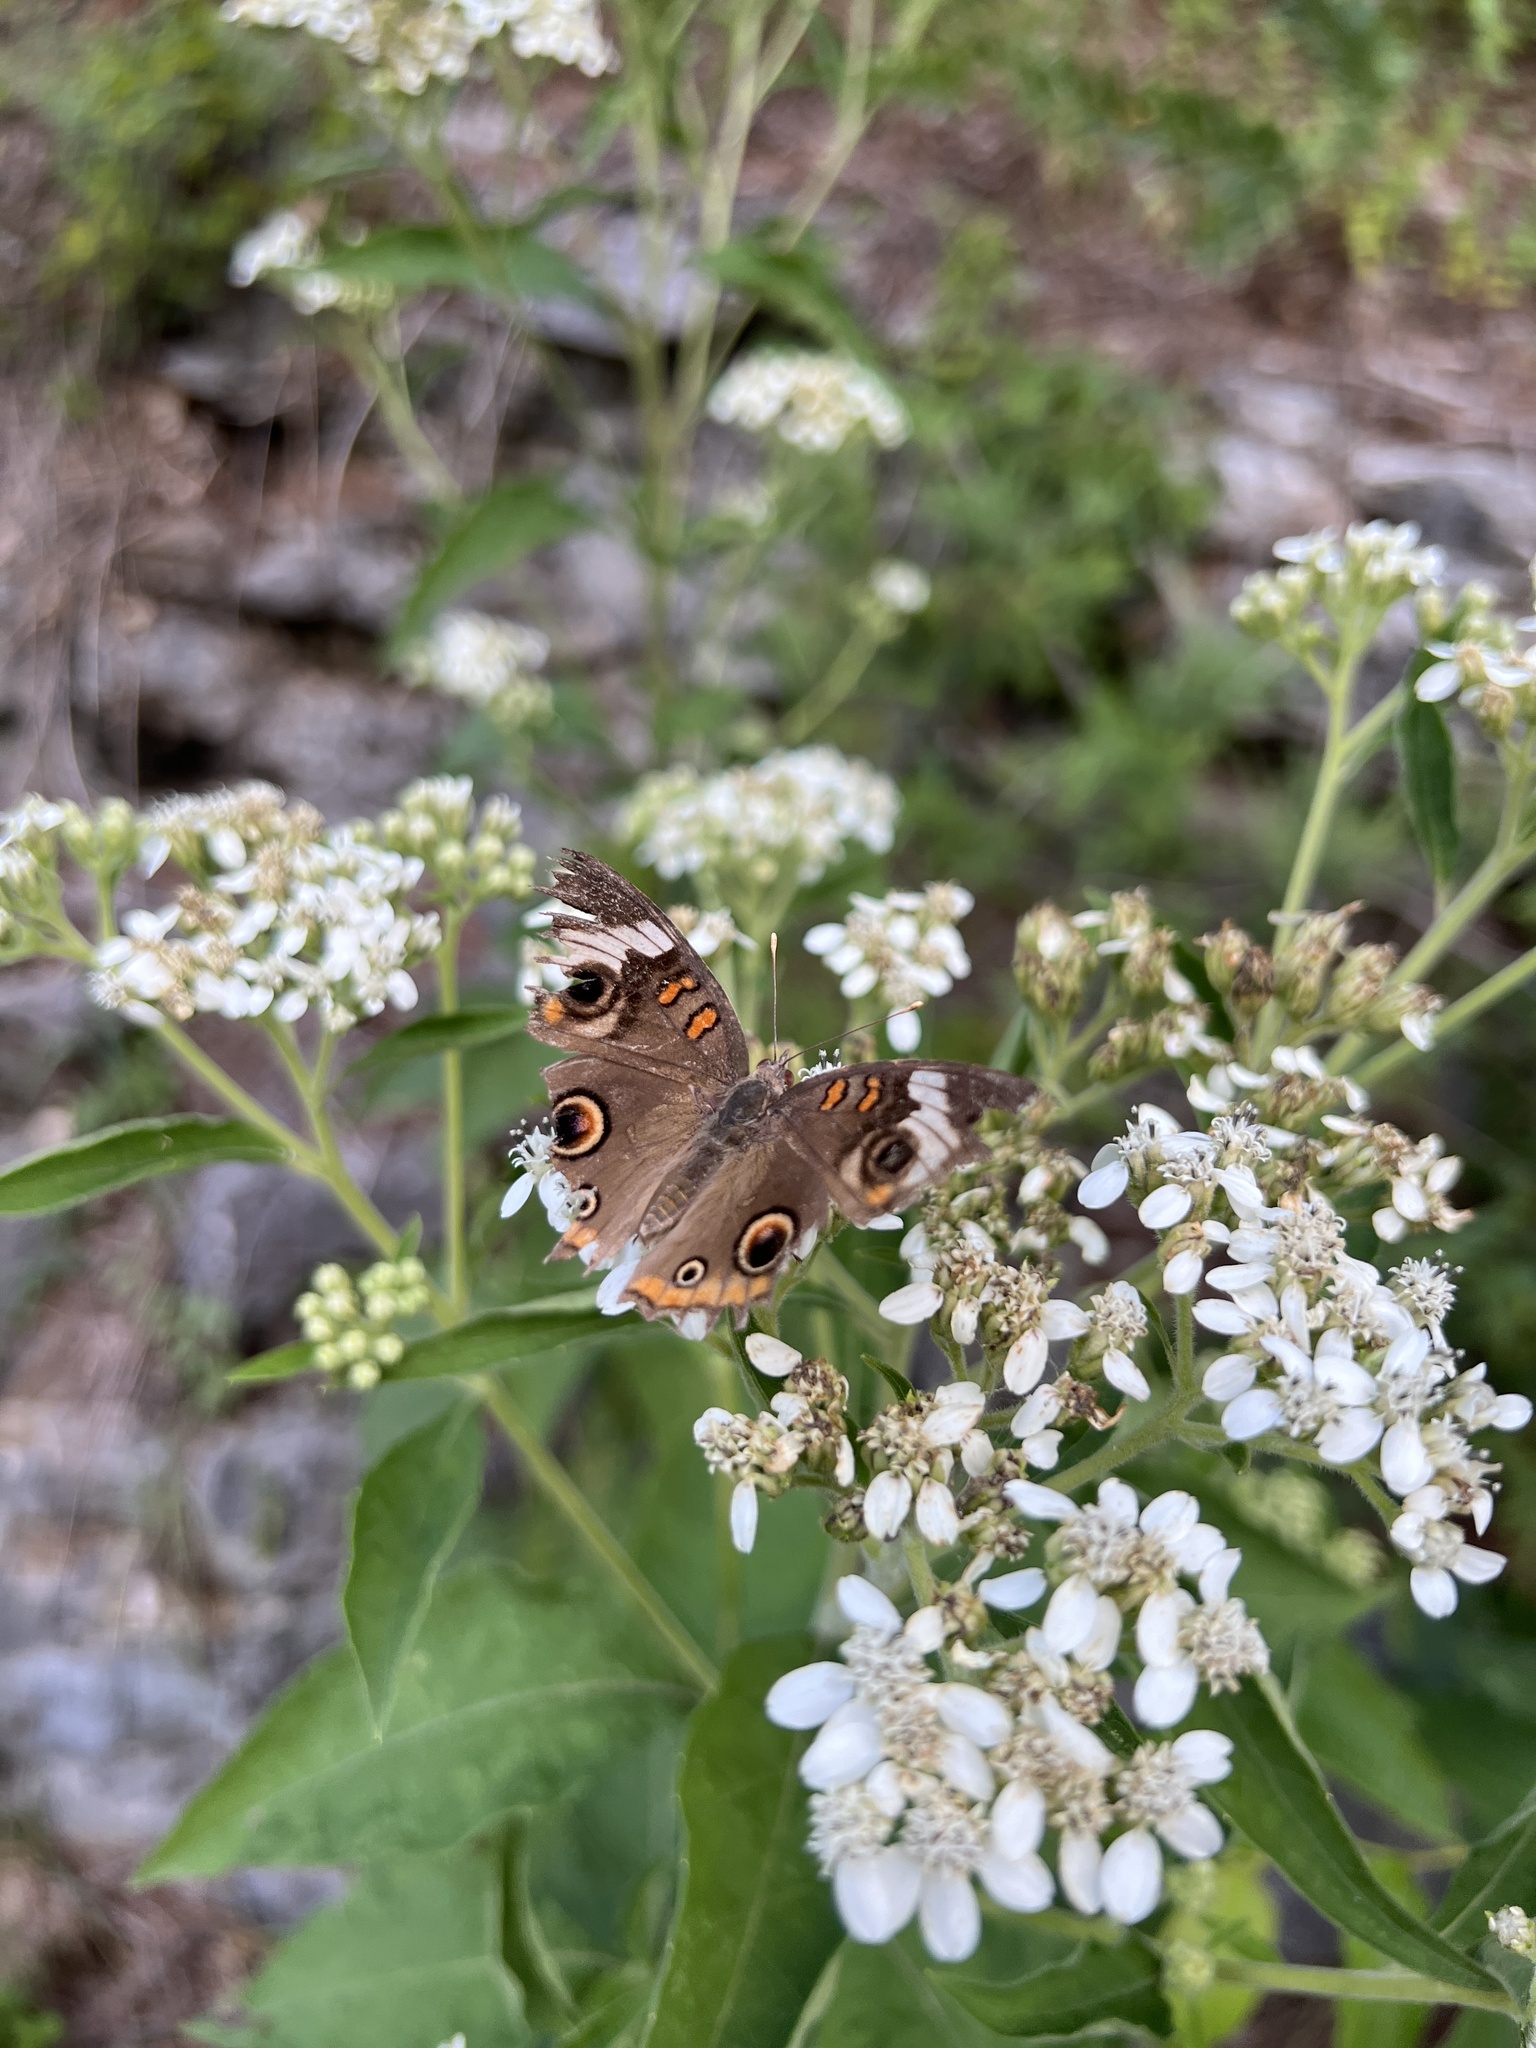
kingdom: Animalia
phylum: Arthropoda
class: Insecta
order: Lepidoptera
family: Nymphalidae
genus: Junonia
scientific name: Junonia coenia
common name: Common buckeye
